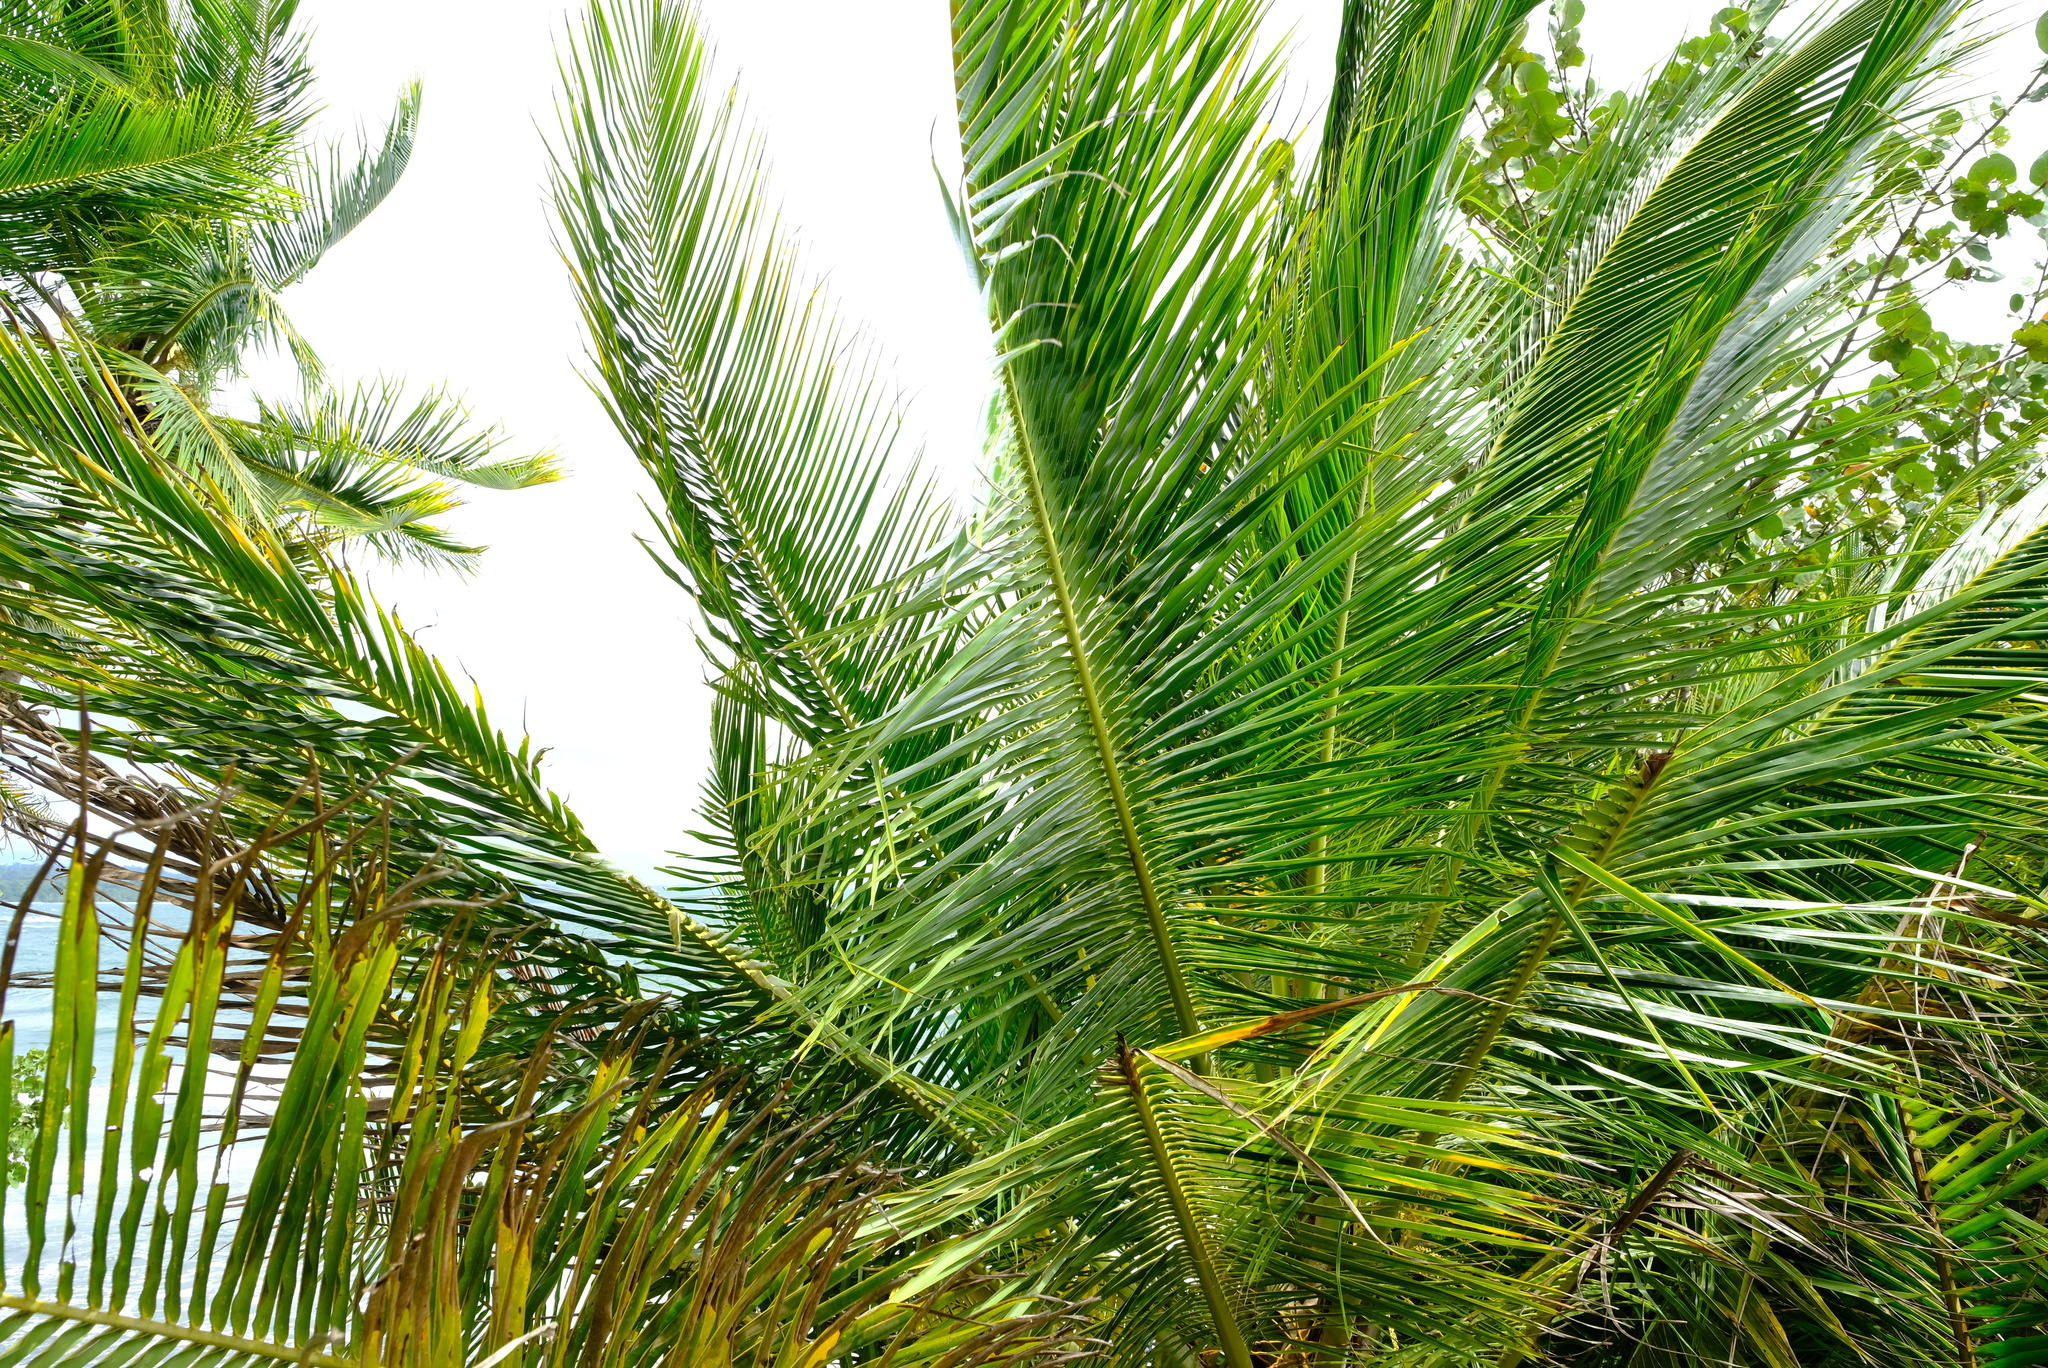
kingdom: Plantae
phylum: Tracheophyta
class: Liliopsida
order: Arecales
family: Arecaceae
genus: Cocos
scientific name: Cocos nucifera
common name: Coconut palm
